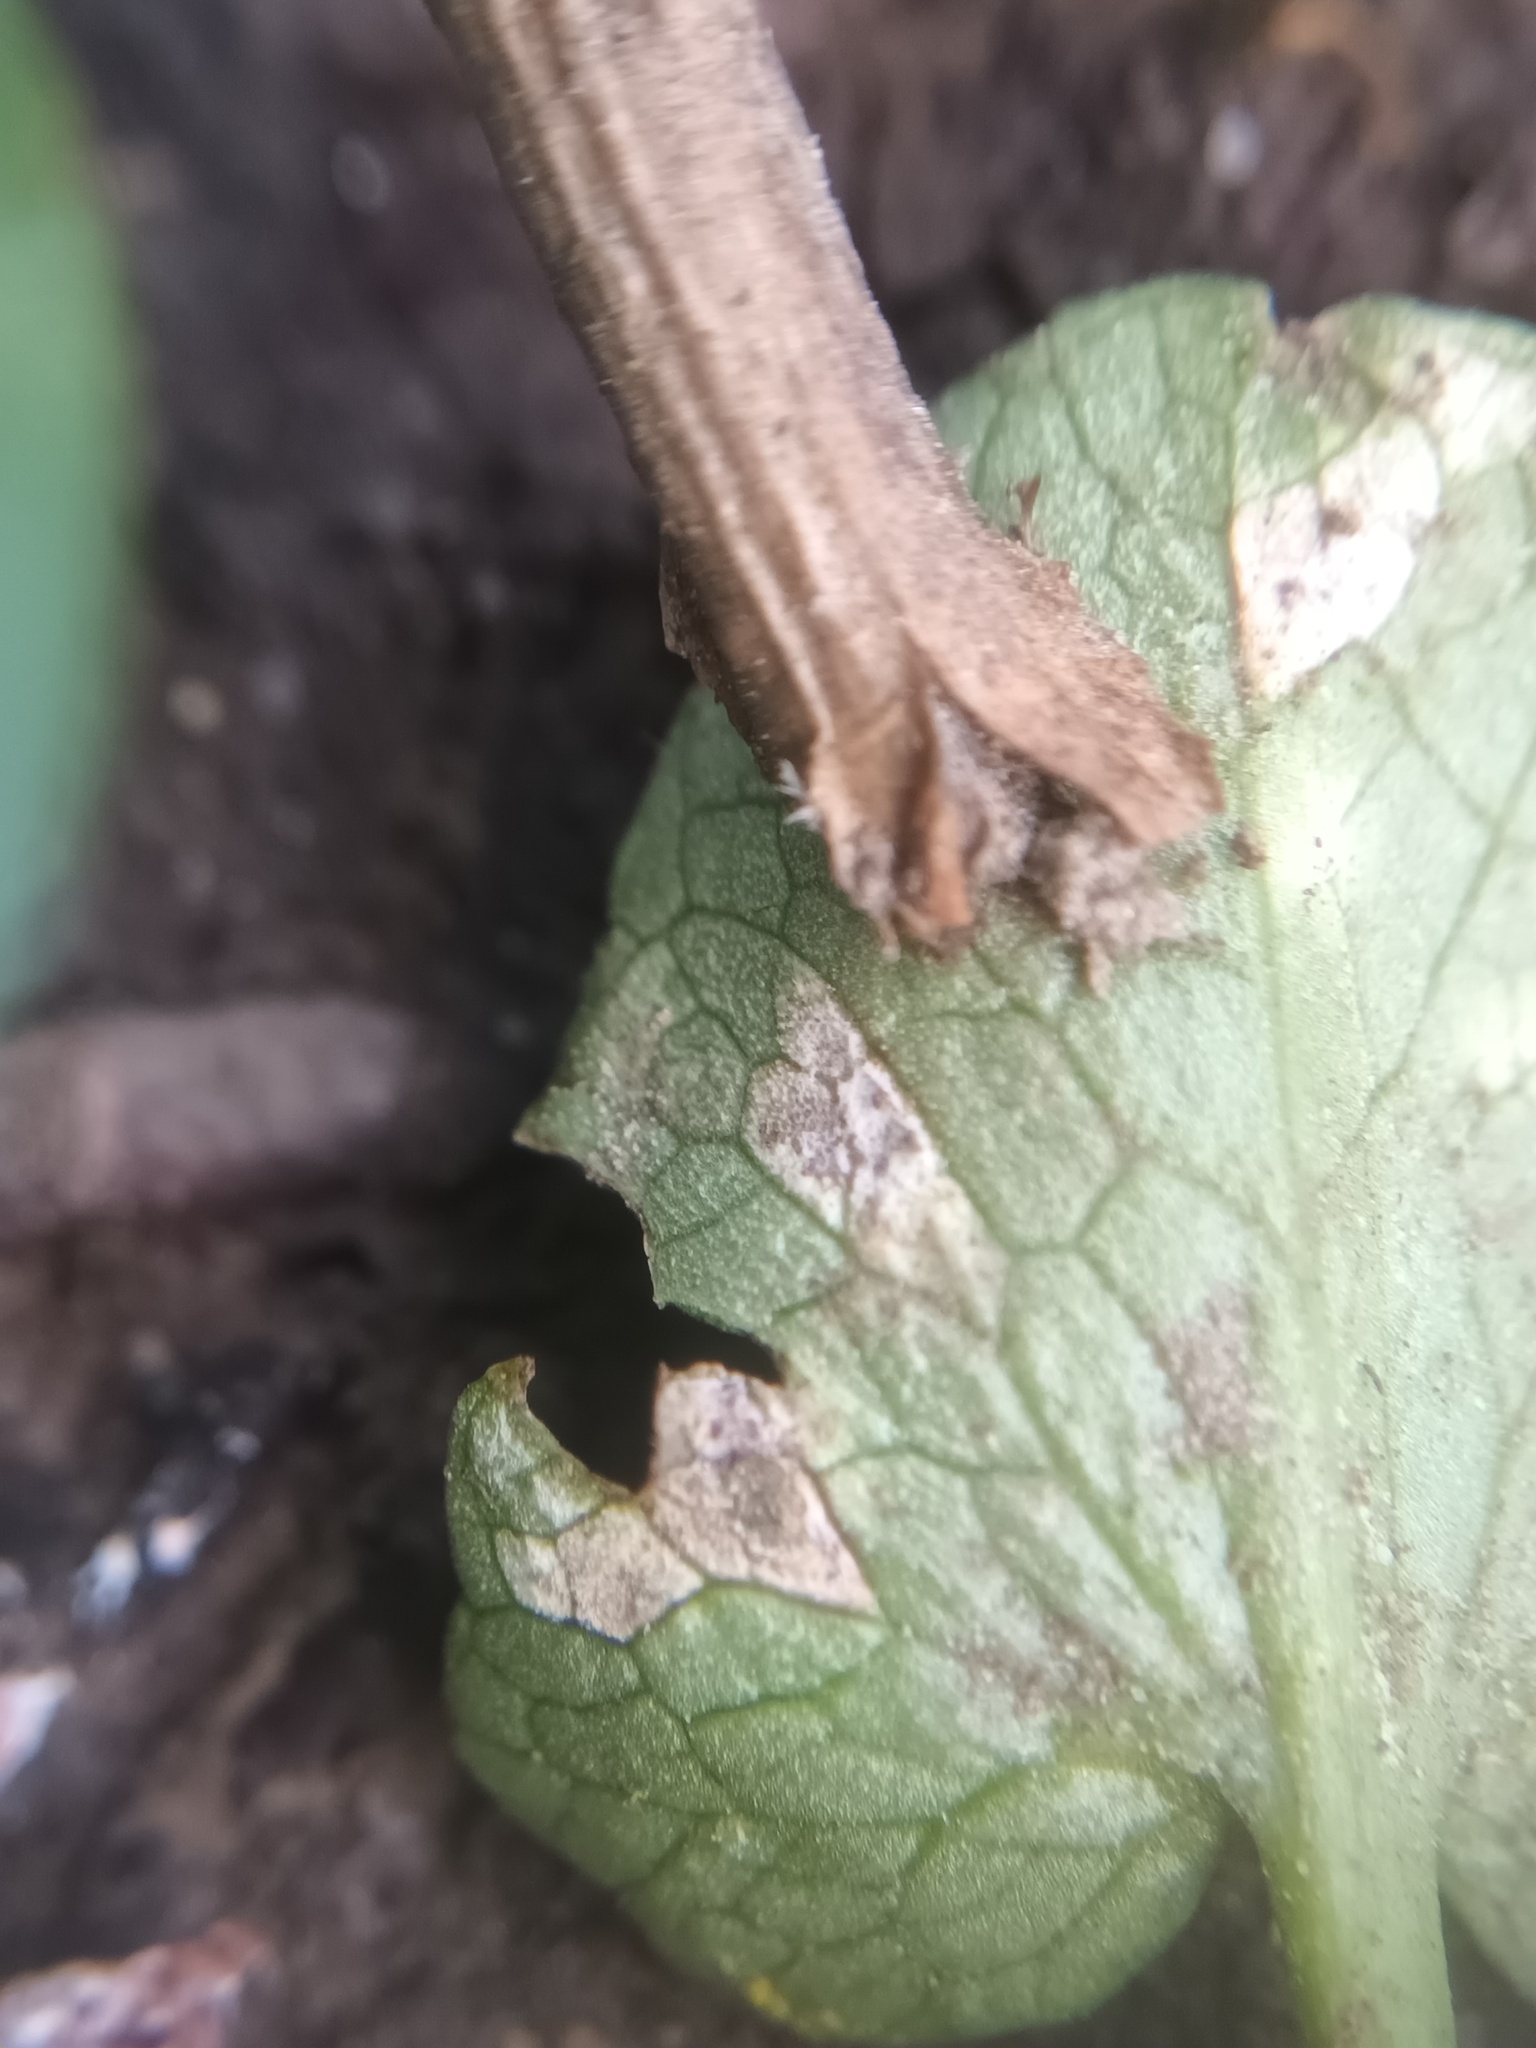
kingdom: Fungi
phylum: Basidiomycota
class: Exobasidiomycetes
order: Entylomatales
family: Entylomataceae
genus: Entyloma
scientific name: Entyloma ficariae
